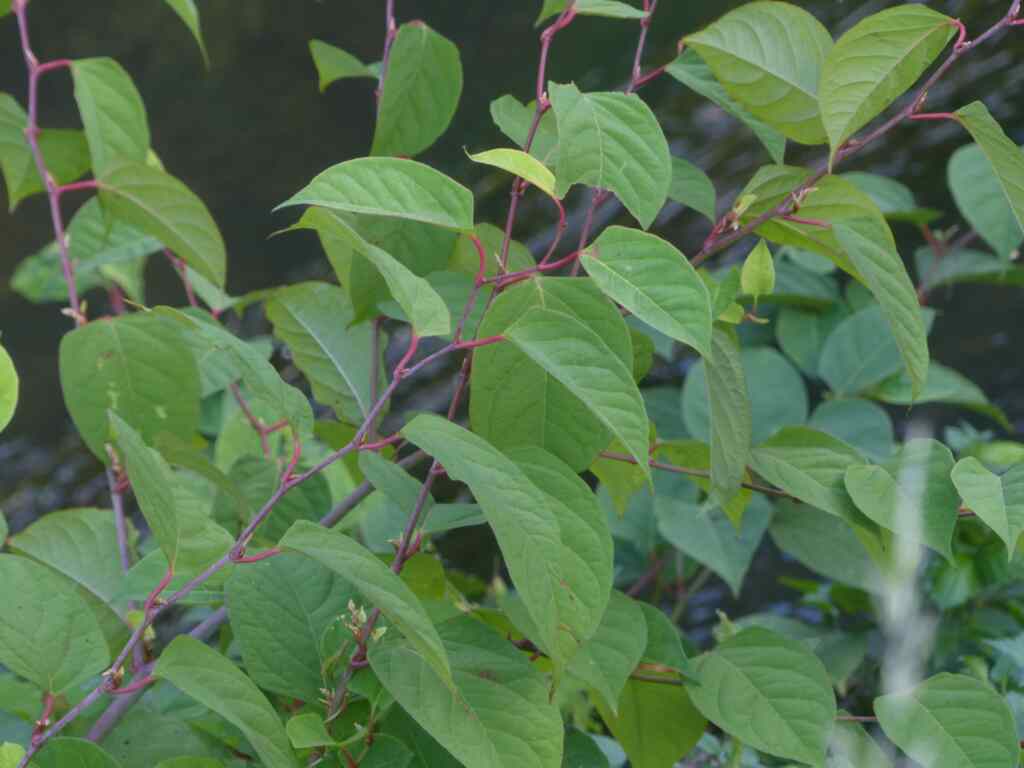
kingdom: Plantae
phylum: Tracheophyta
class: Magnoliopsida
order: Caryophyllales
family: Polygonaceae
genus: Reynoutria
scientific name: Reynoutria japonica
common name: Japanese knotweed
